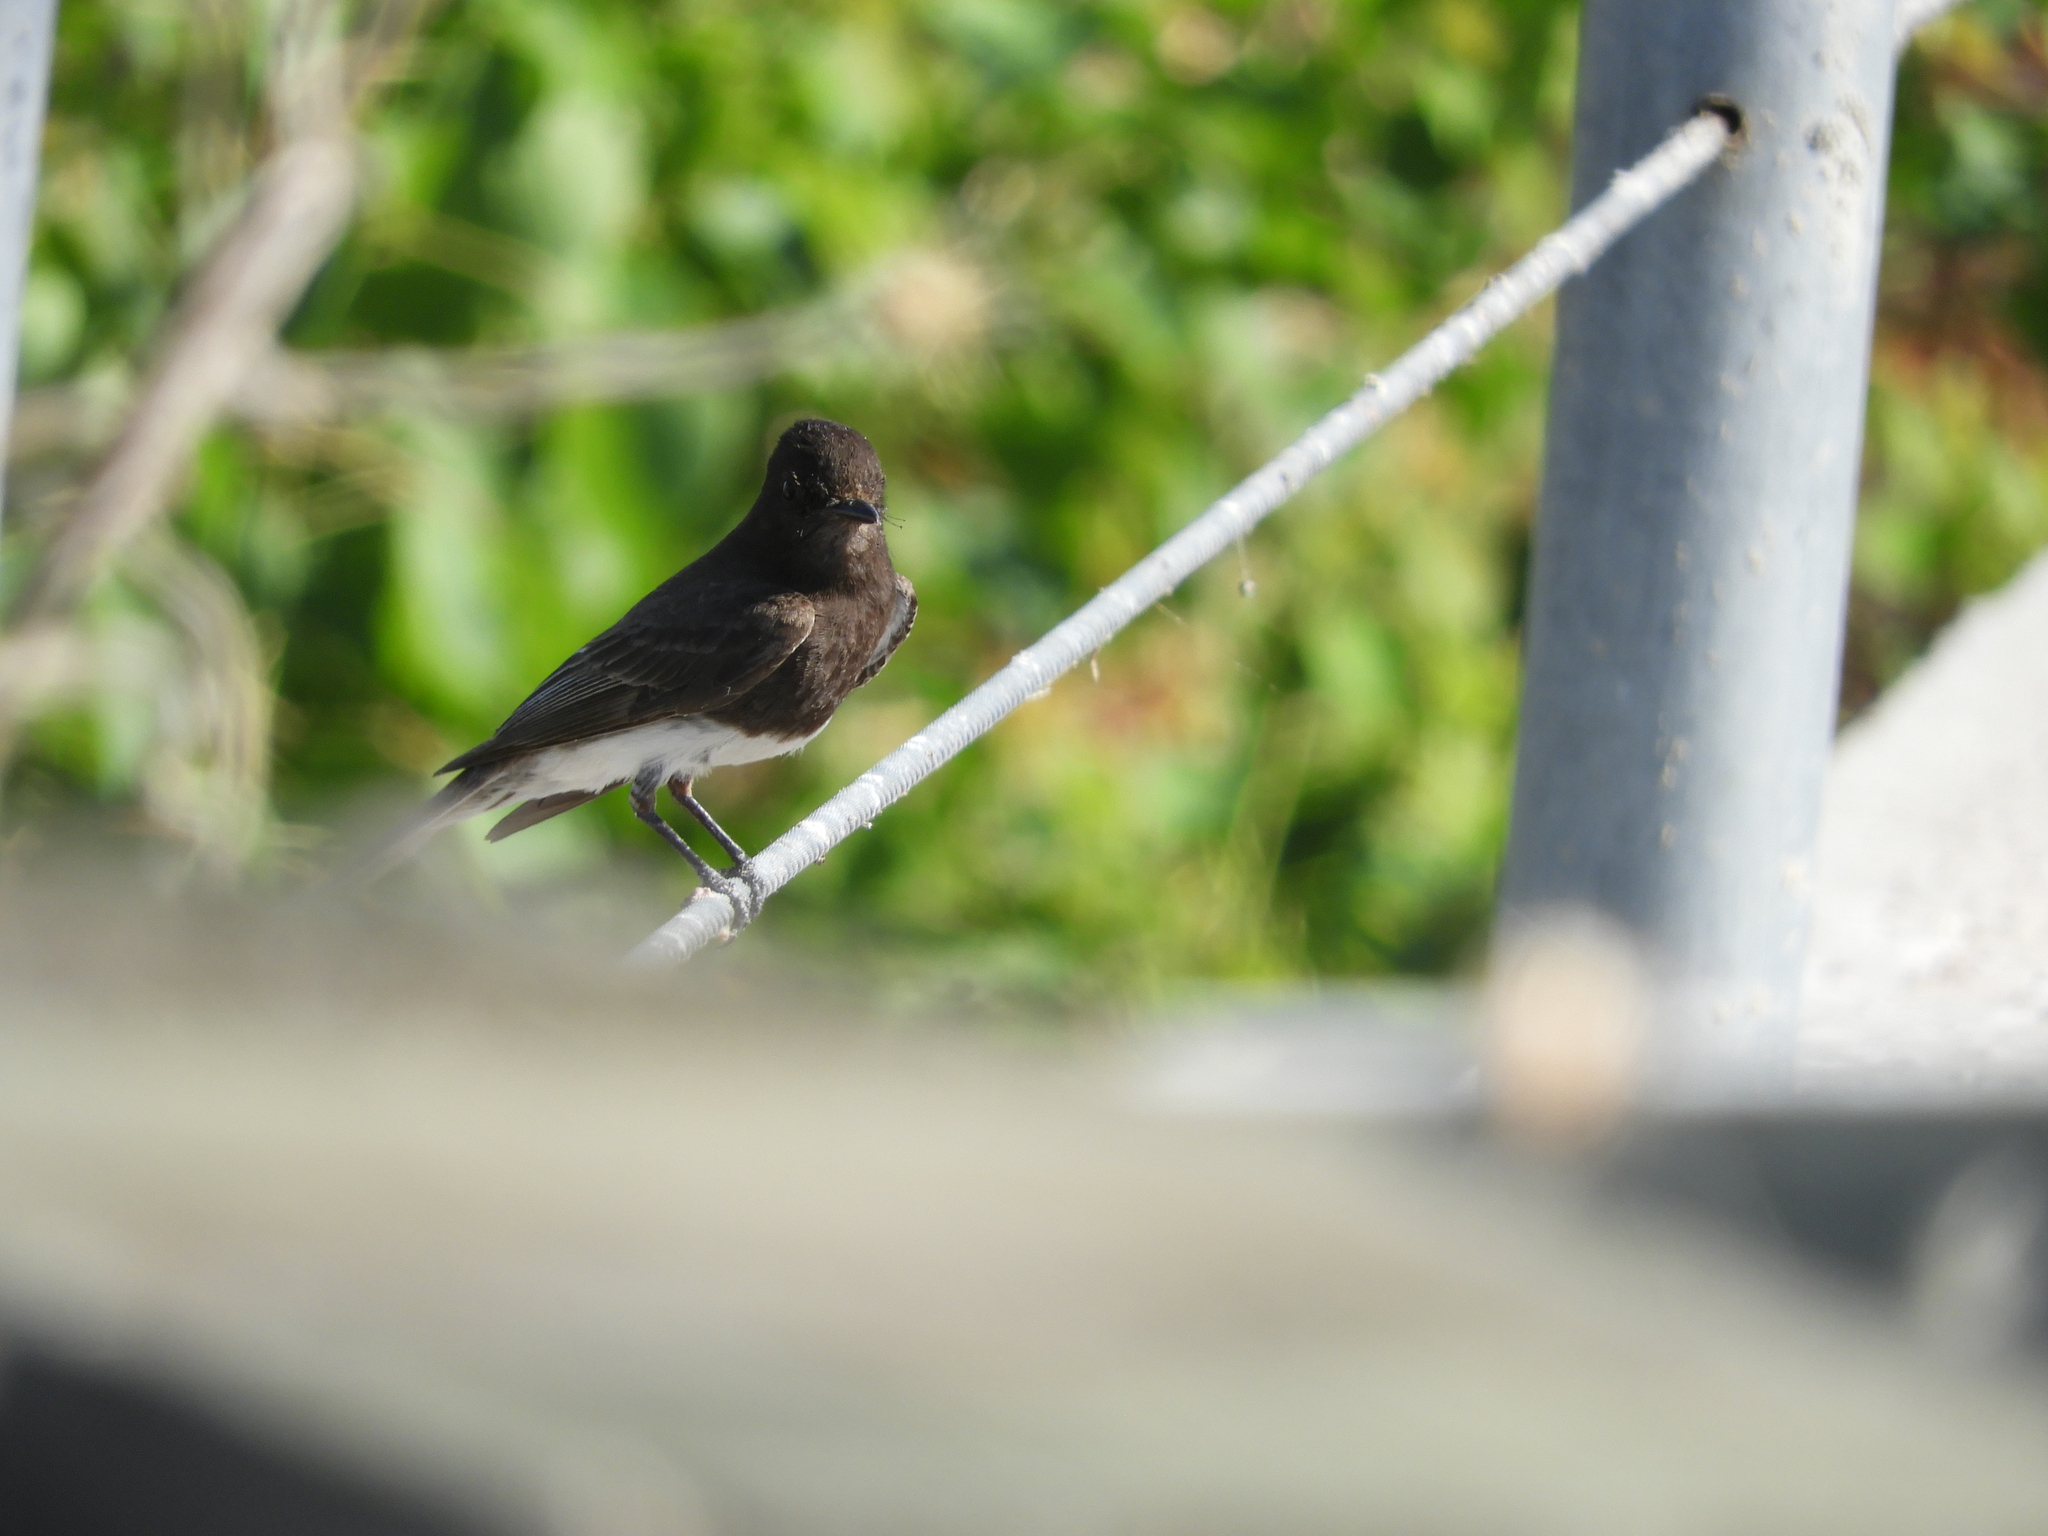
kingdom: Animalia
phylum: Chordata
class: Aves
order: Passeriformes
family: Tyrannidae
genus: Sayornis
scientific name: Sayornis nigricans
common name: Black phoebe
